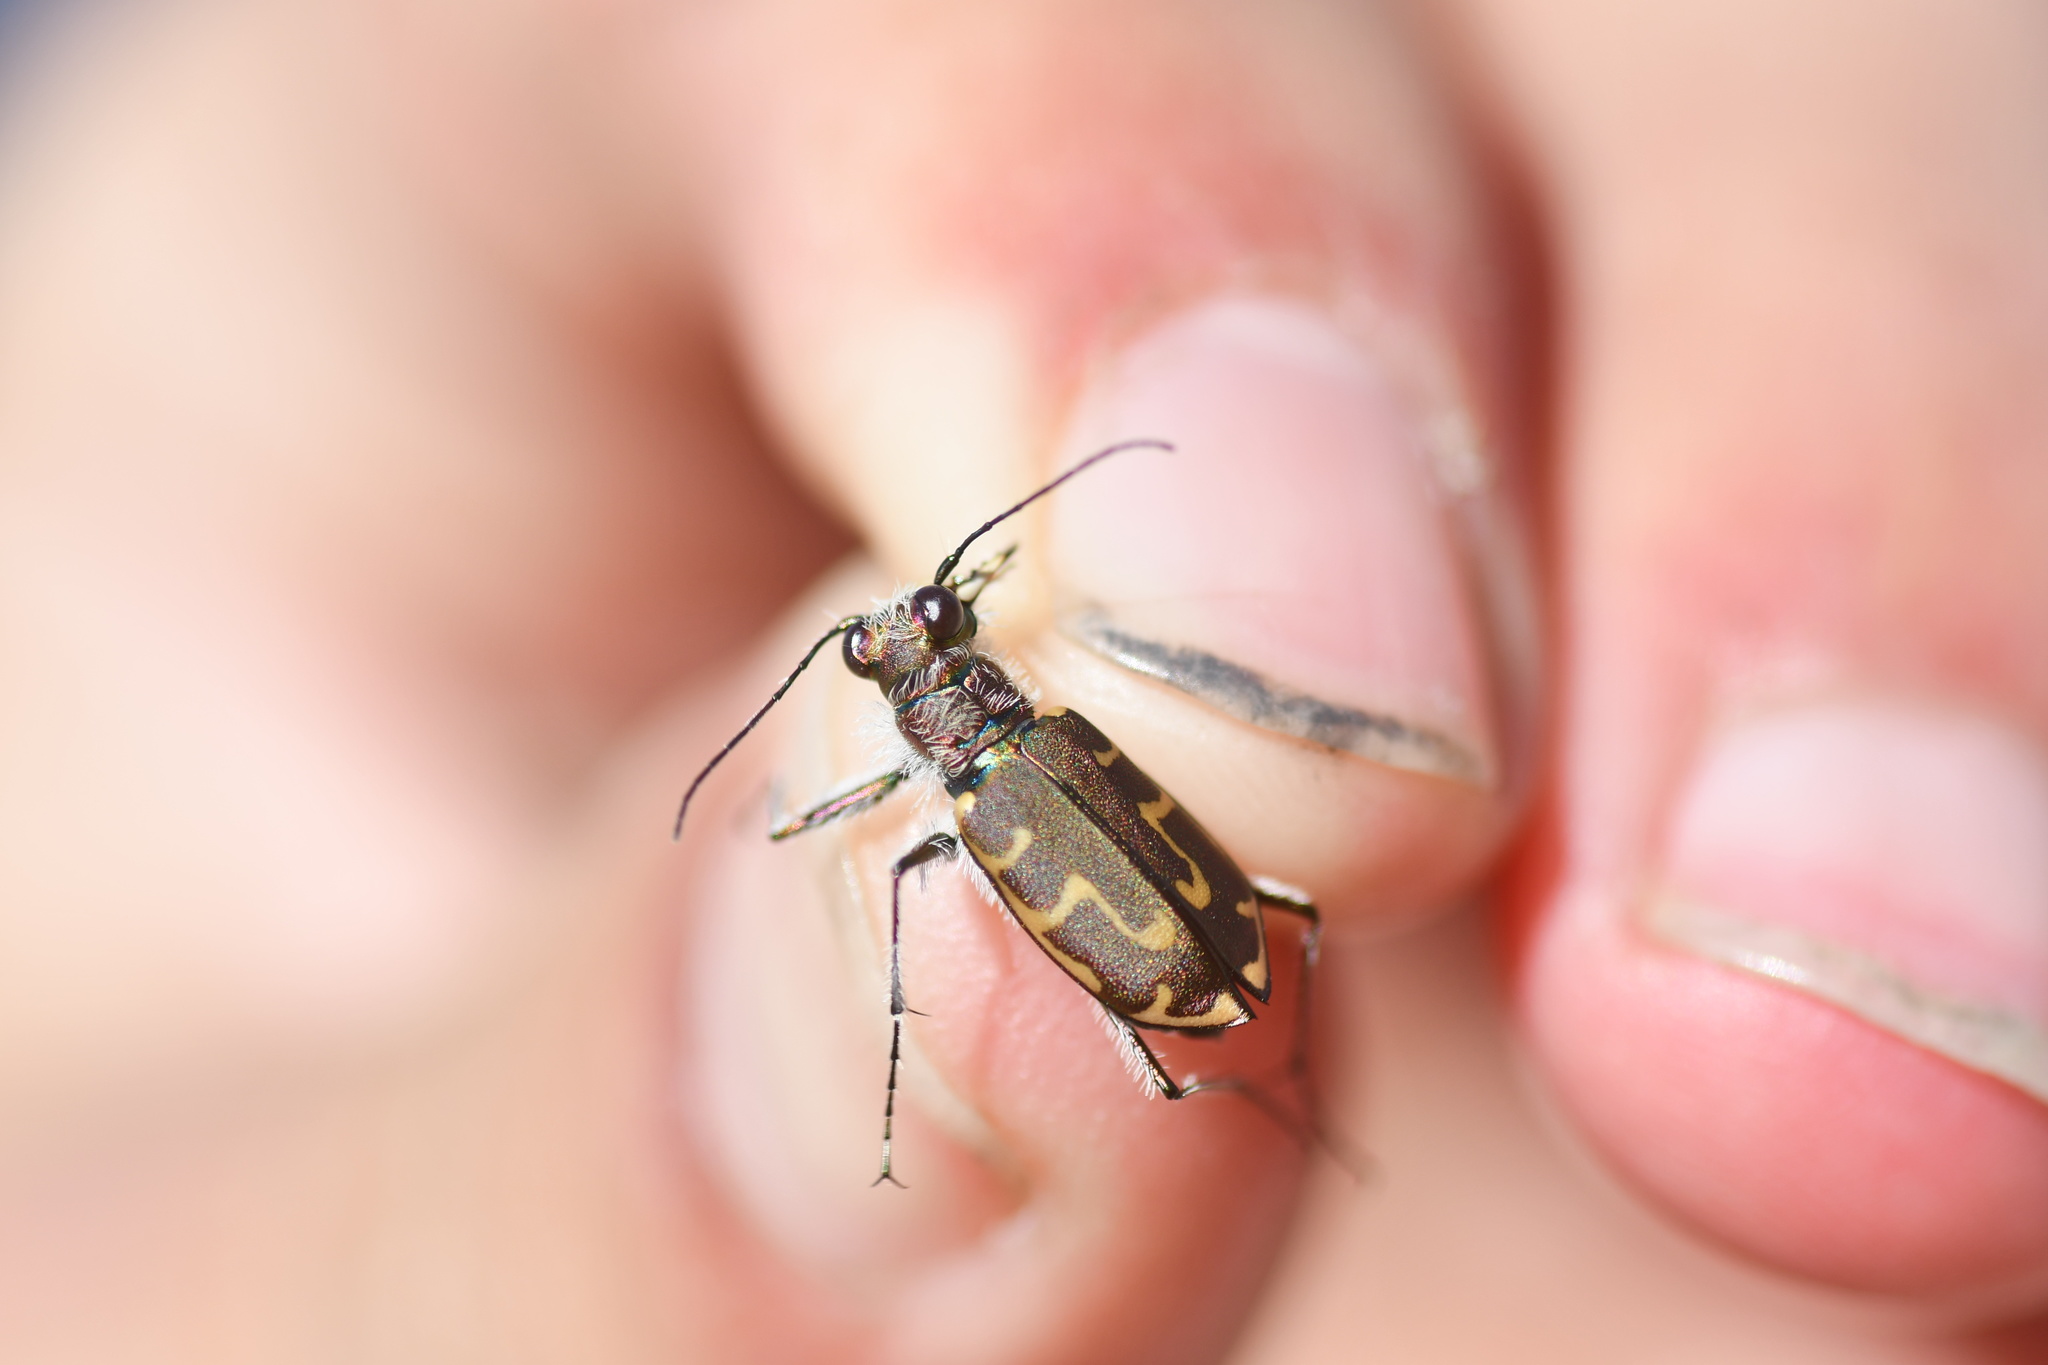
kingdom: Animalia
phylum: Arthropoda
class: Insecta
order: Coleoptera
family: Carabidae
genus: Cicindela
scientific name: Cicindela hirticollis
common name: Hairy-necked tiger beetle
